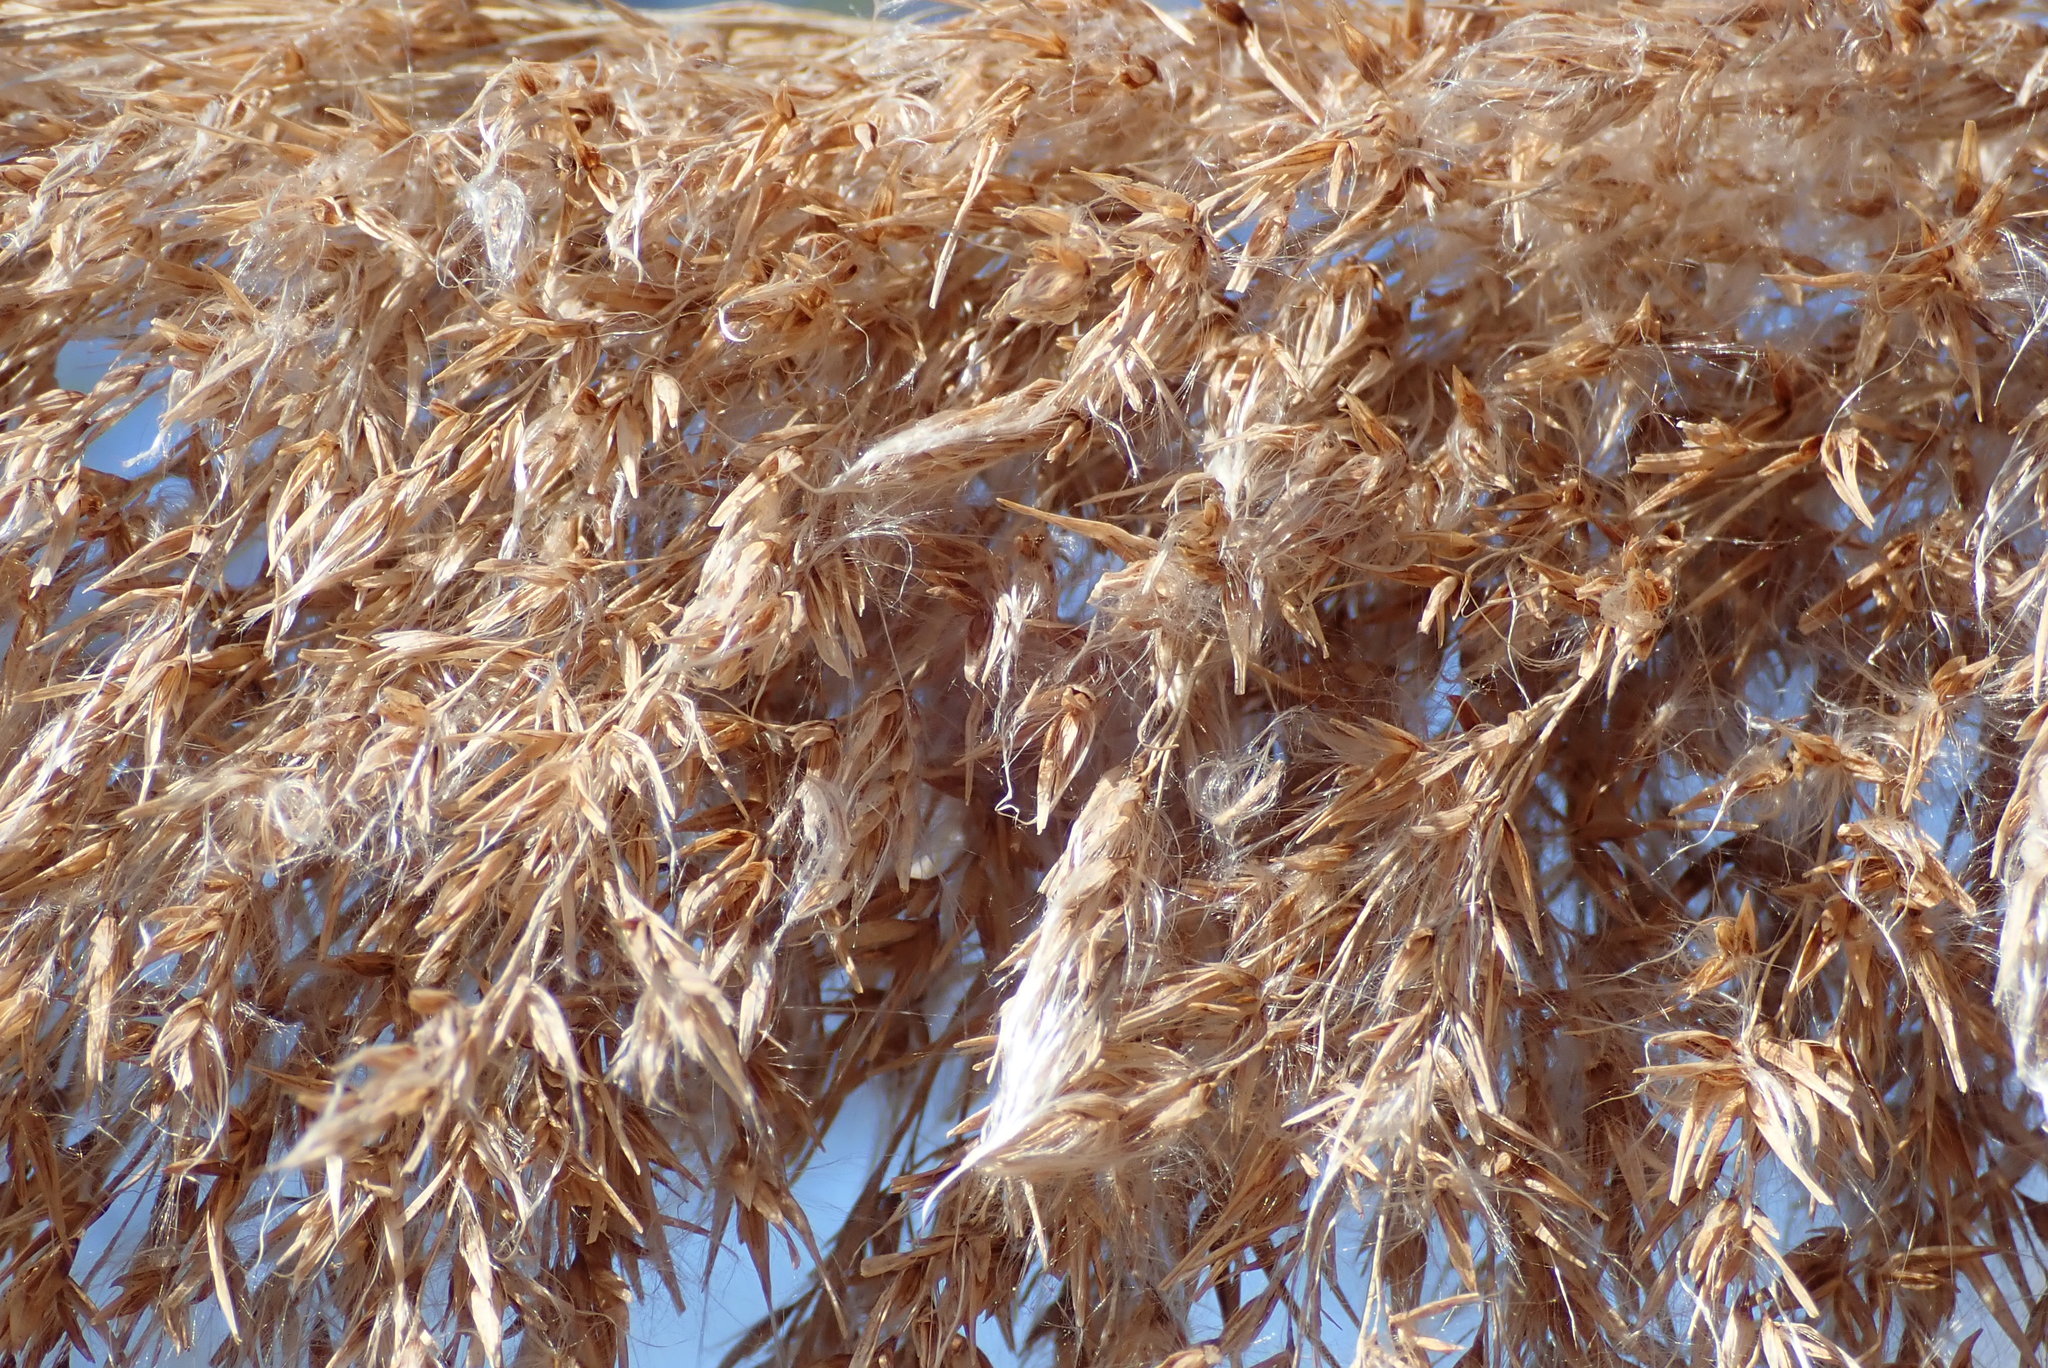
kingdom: Plantae
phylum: Tracheophyta
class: Liliopsida
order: Poales
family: Poaceae
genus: Phragmites
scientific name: Phragmites australis
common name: Common reed
